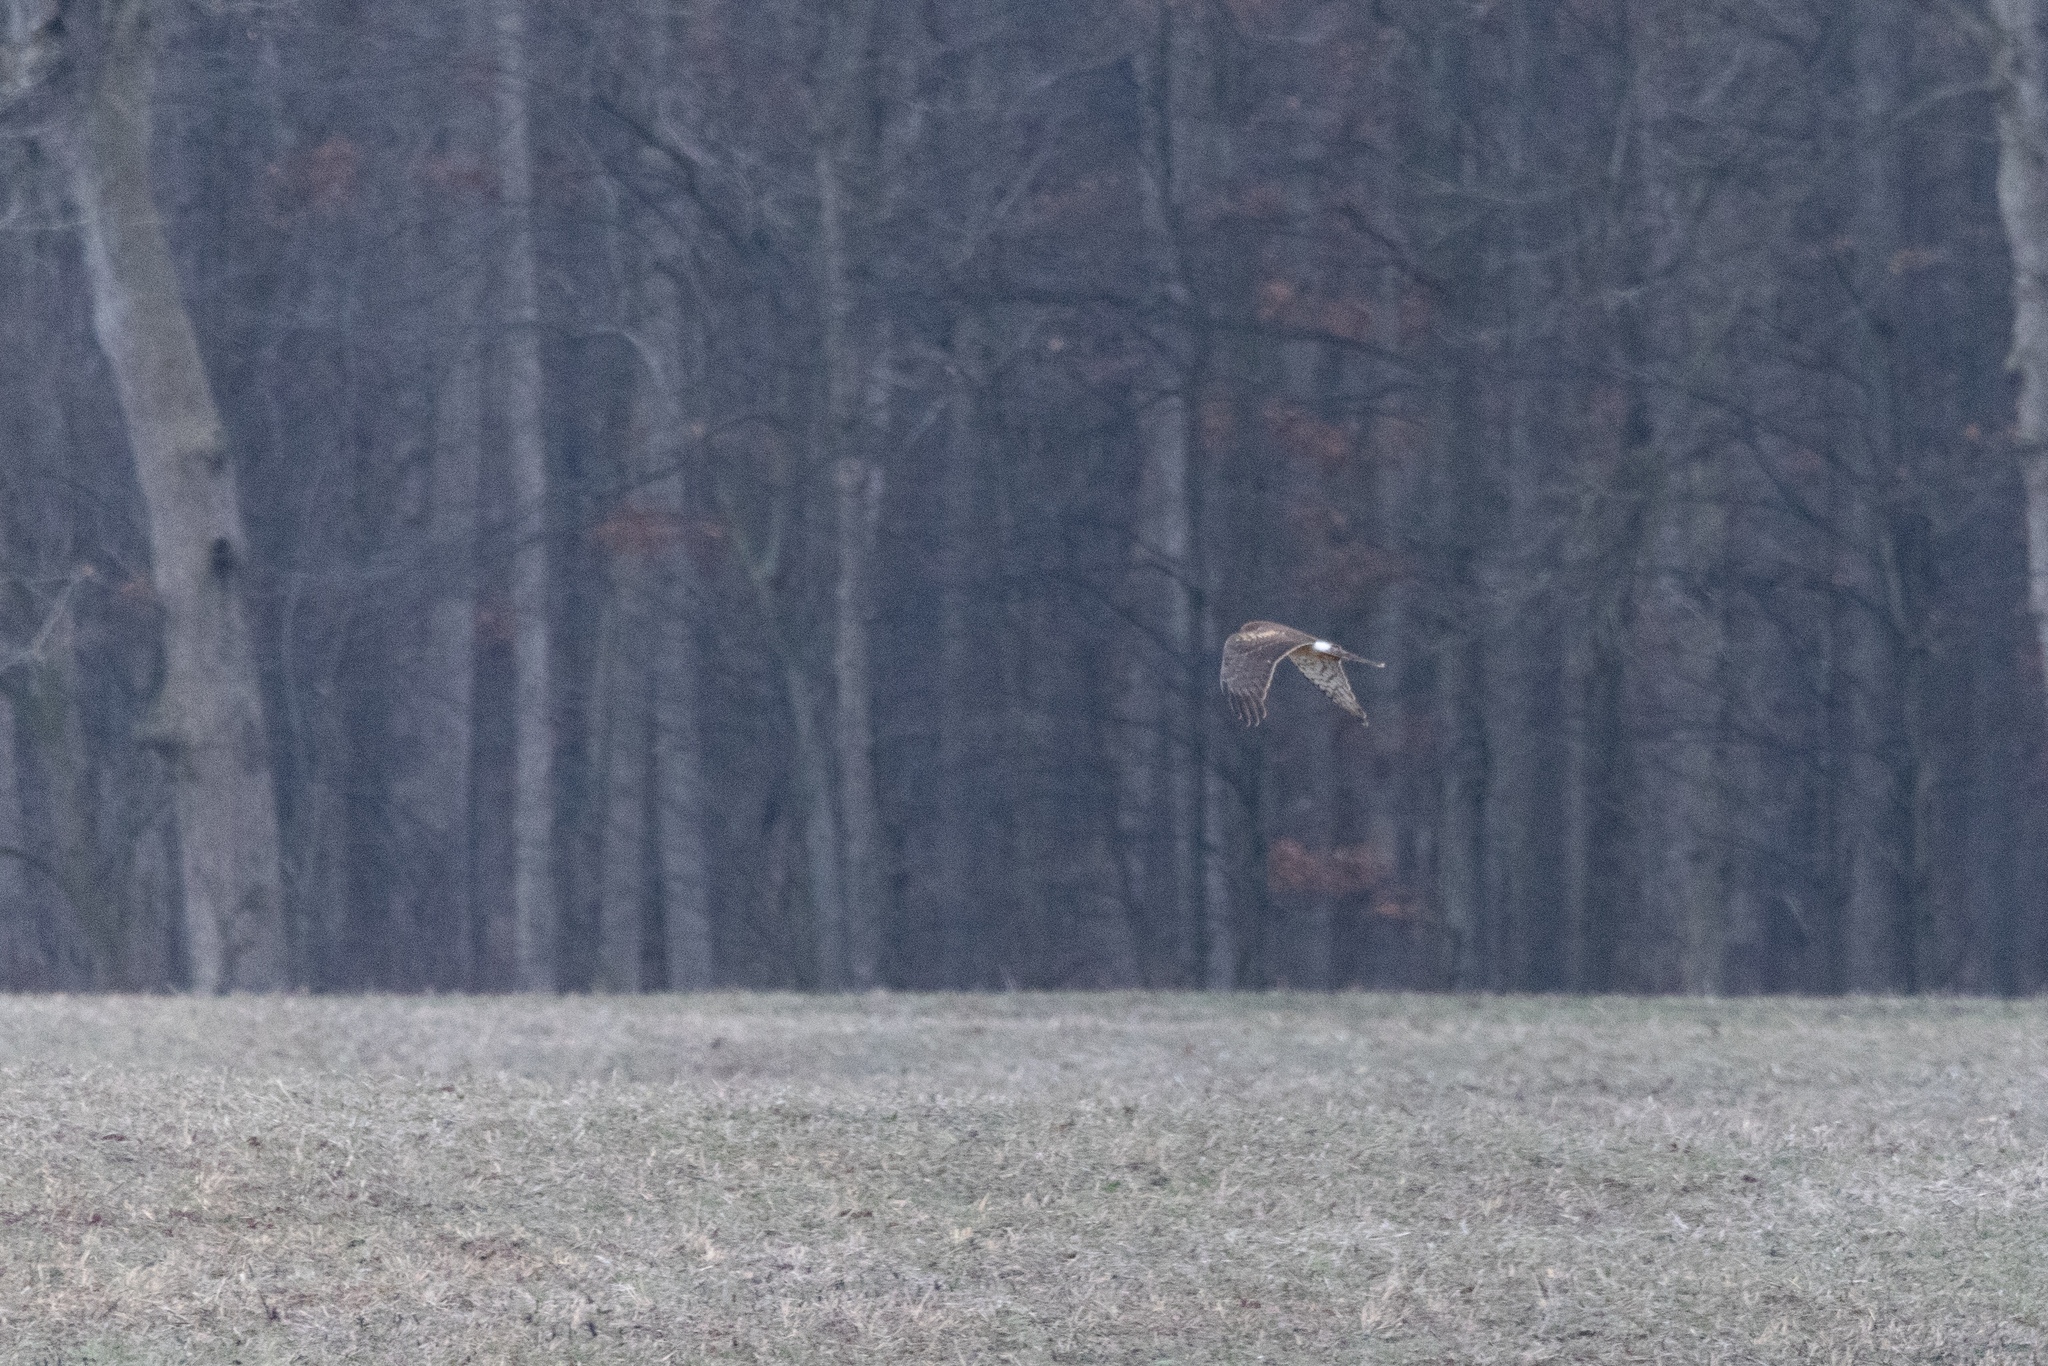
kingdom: Animalia
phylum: Chordata
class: Aves
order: Accipitriformes
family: Accipitridae
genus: Circus
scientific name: Circus cyaneus
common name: Hen harrier
